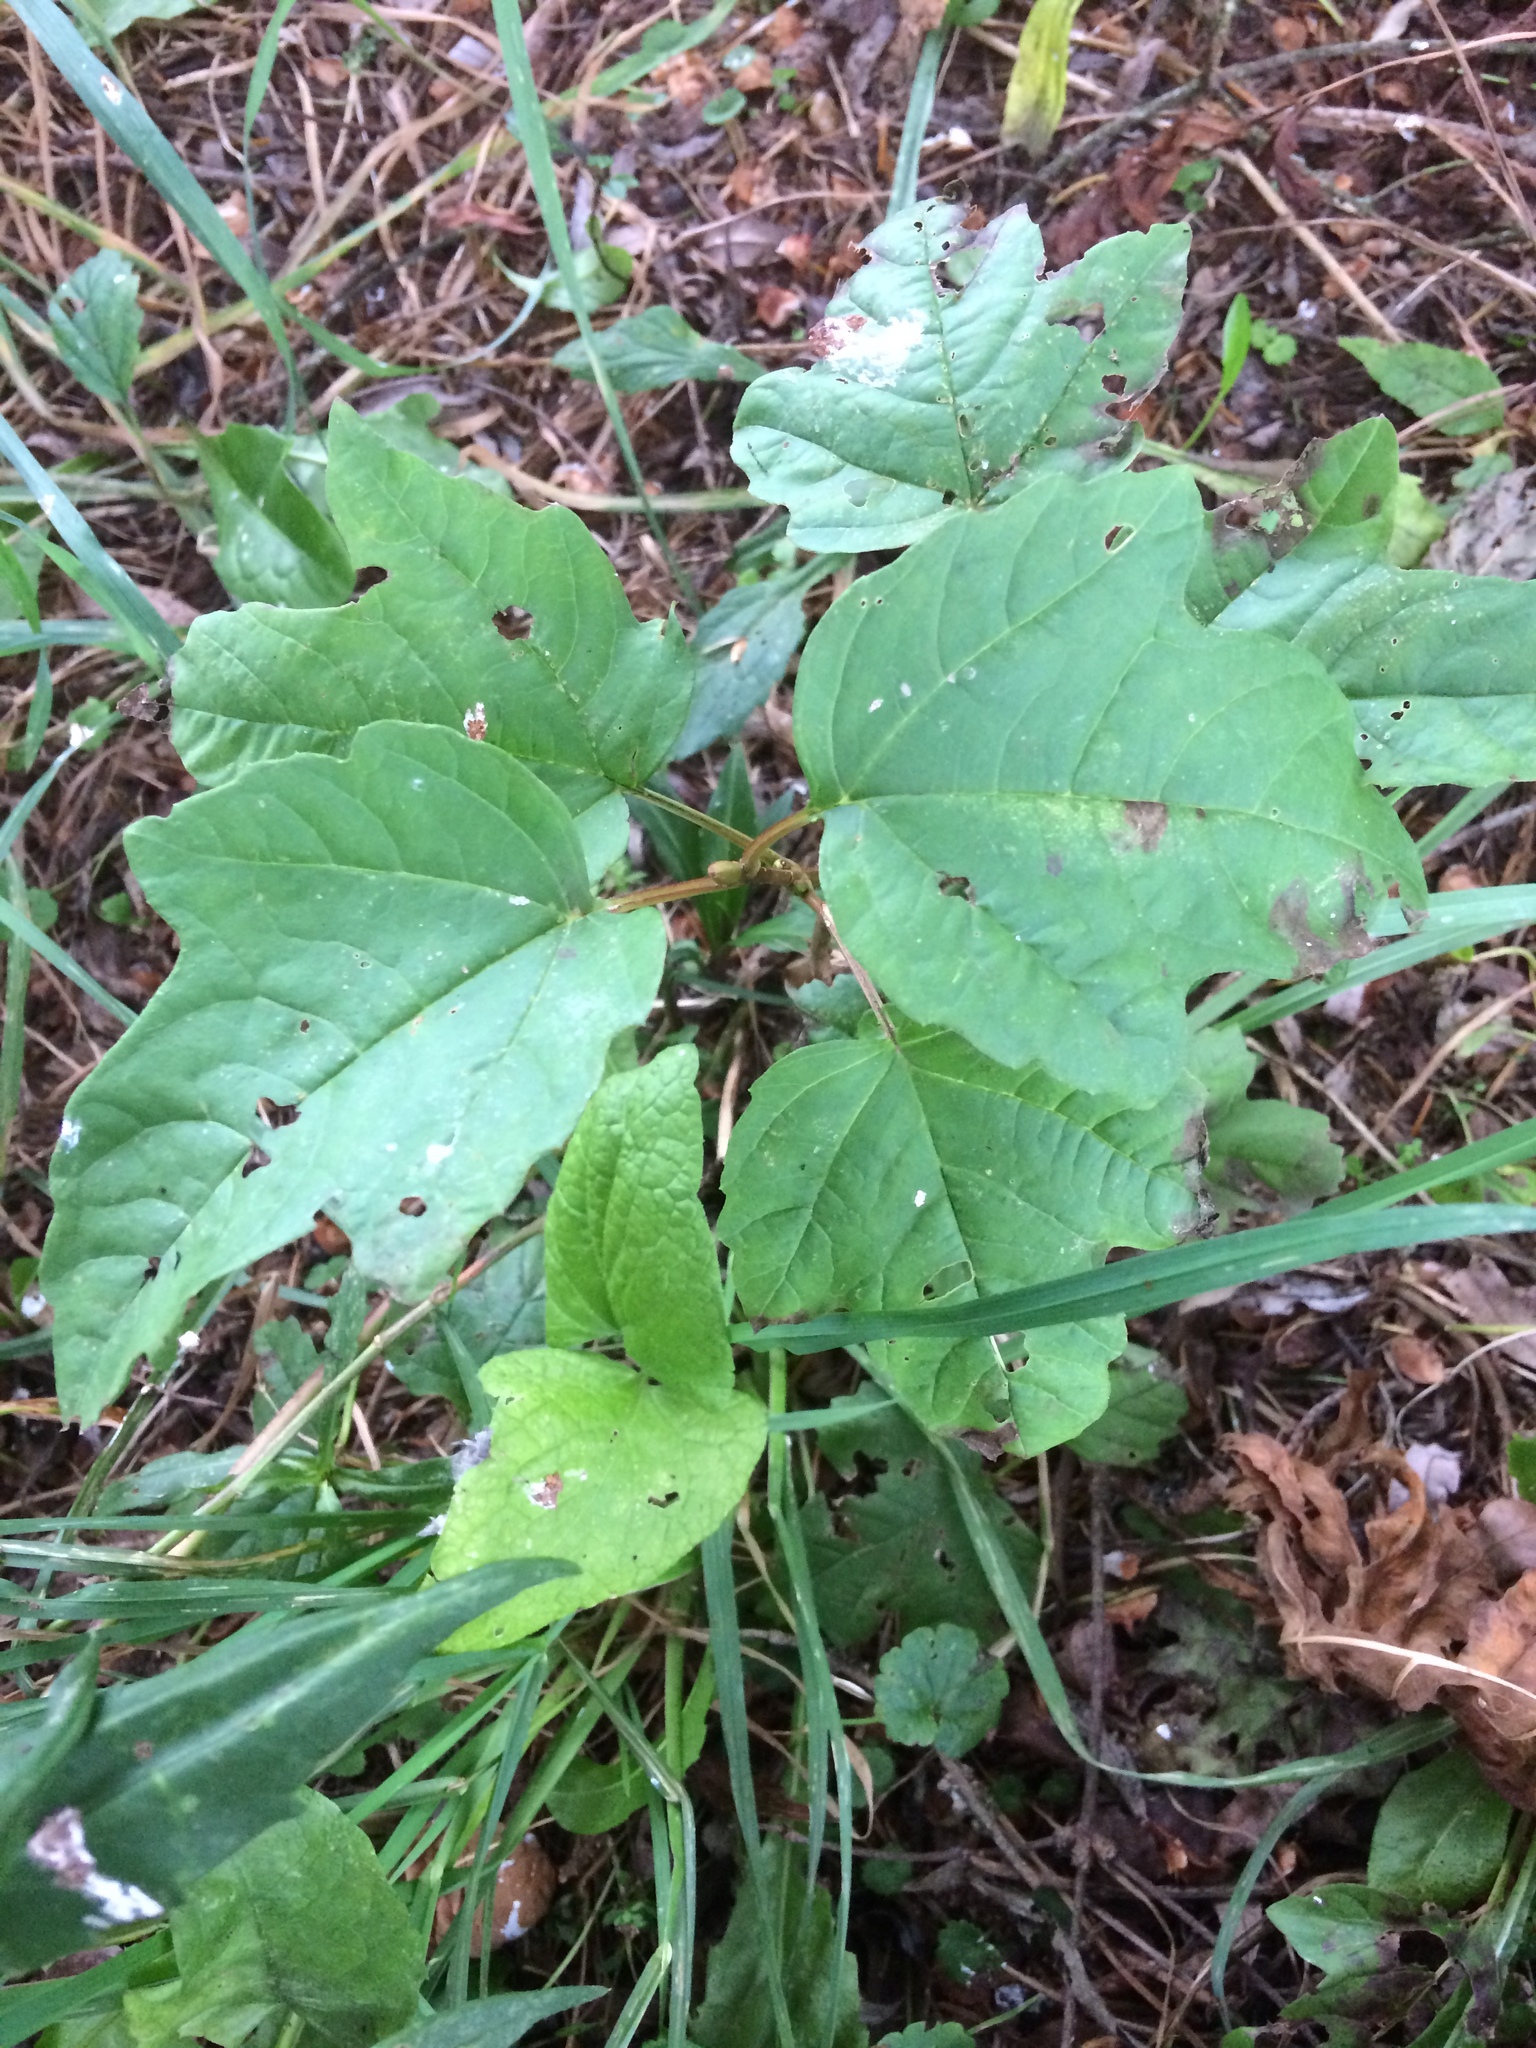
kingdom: Plantae
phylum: Tracheophyta
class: Magnoliopsida
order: Dipsacales
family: Viburnaceae
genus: Viburnum
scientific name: Viburnum trilobum
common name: American cranberrybush
